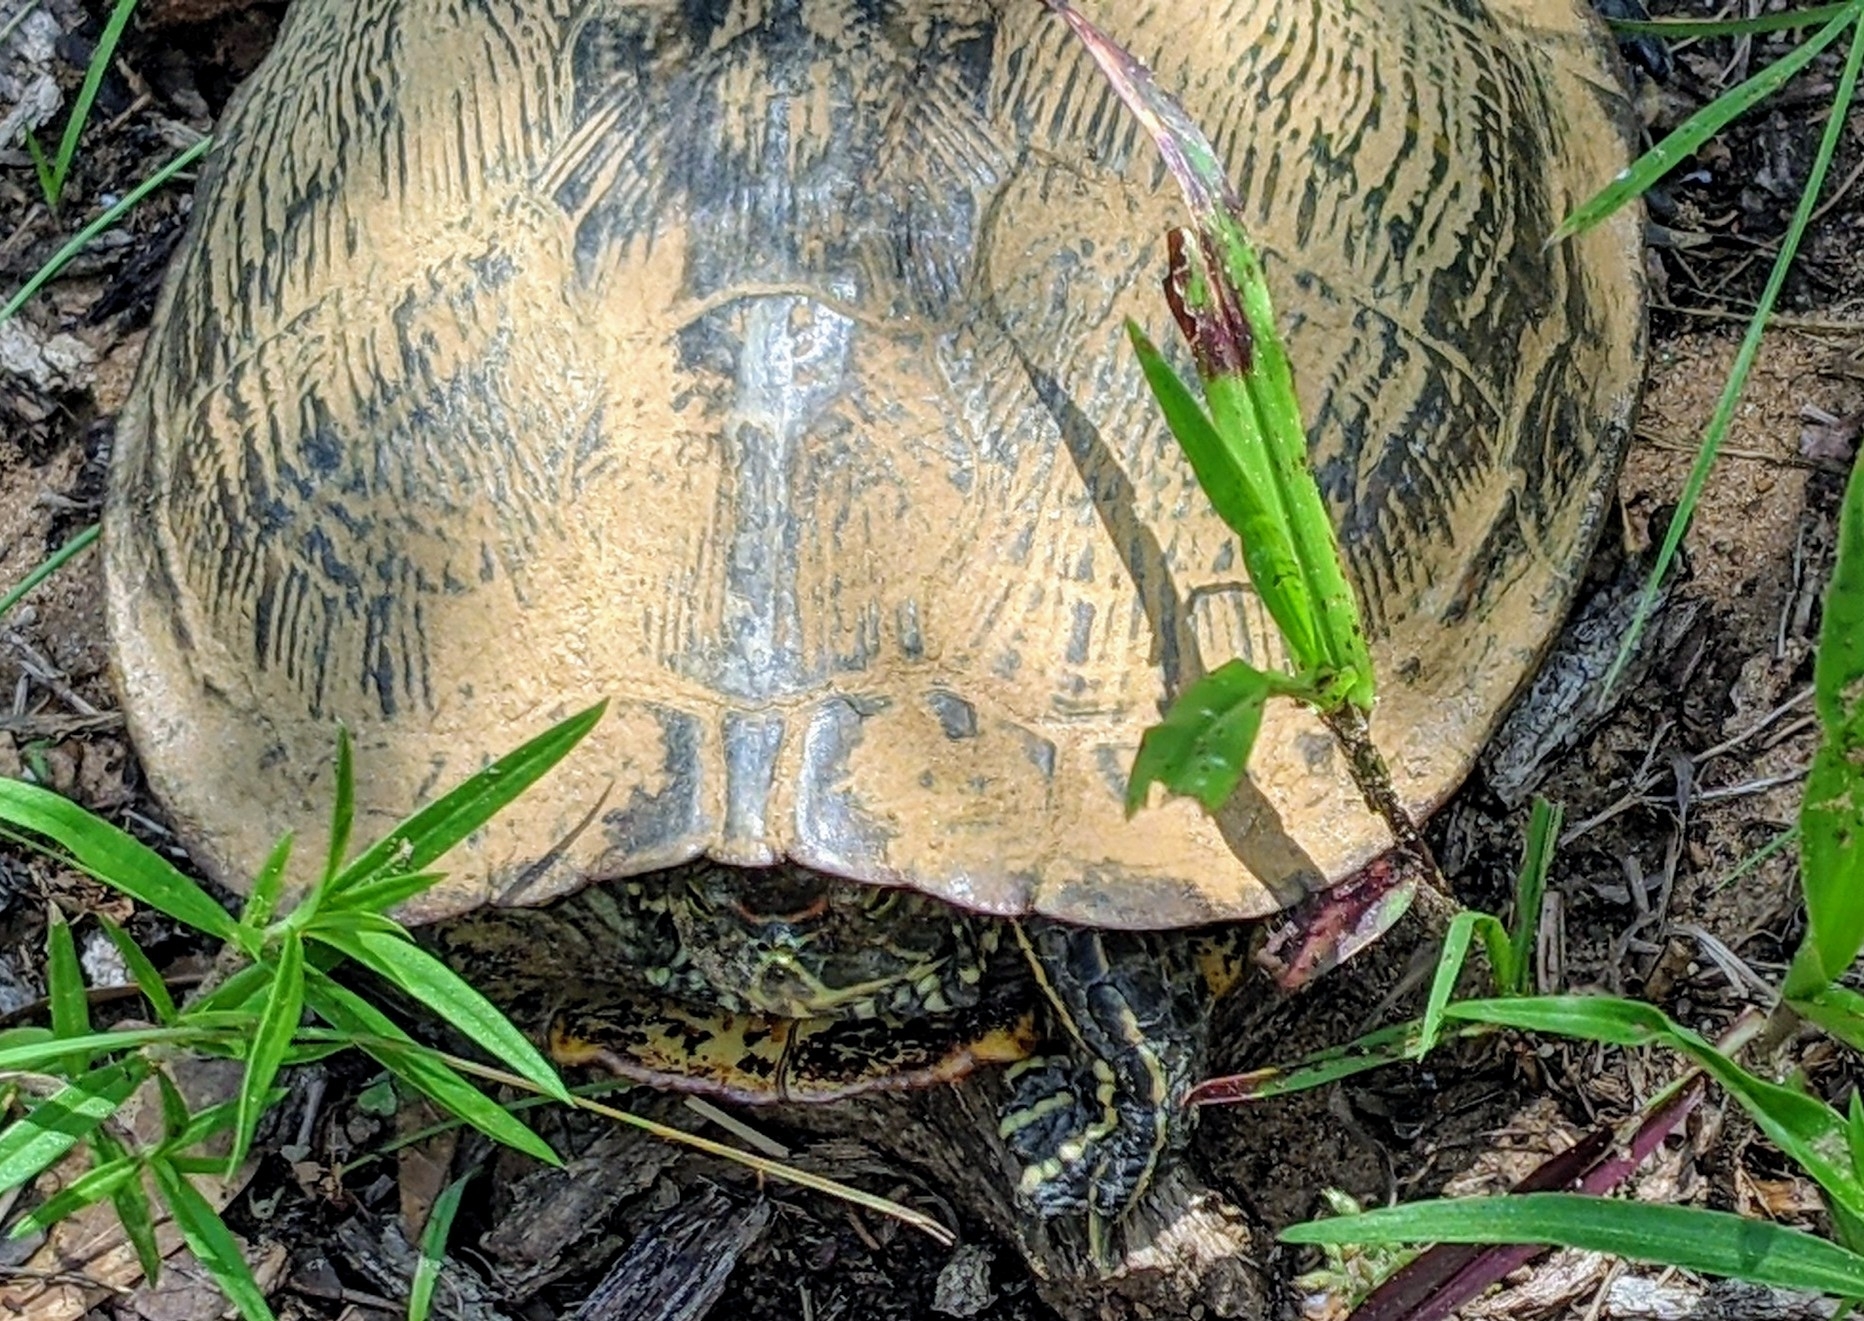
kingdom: Animalia
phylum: Chordata
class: Testudines
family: Emydidae
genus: Trachemys
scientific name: Trachemys scripta
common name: Slider
